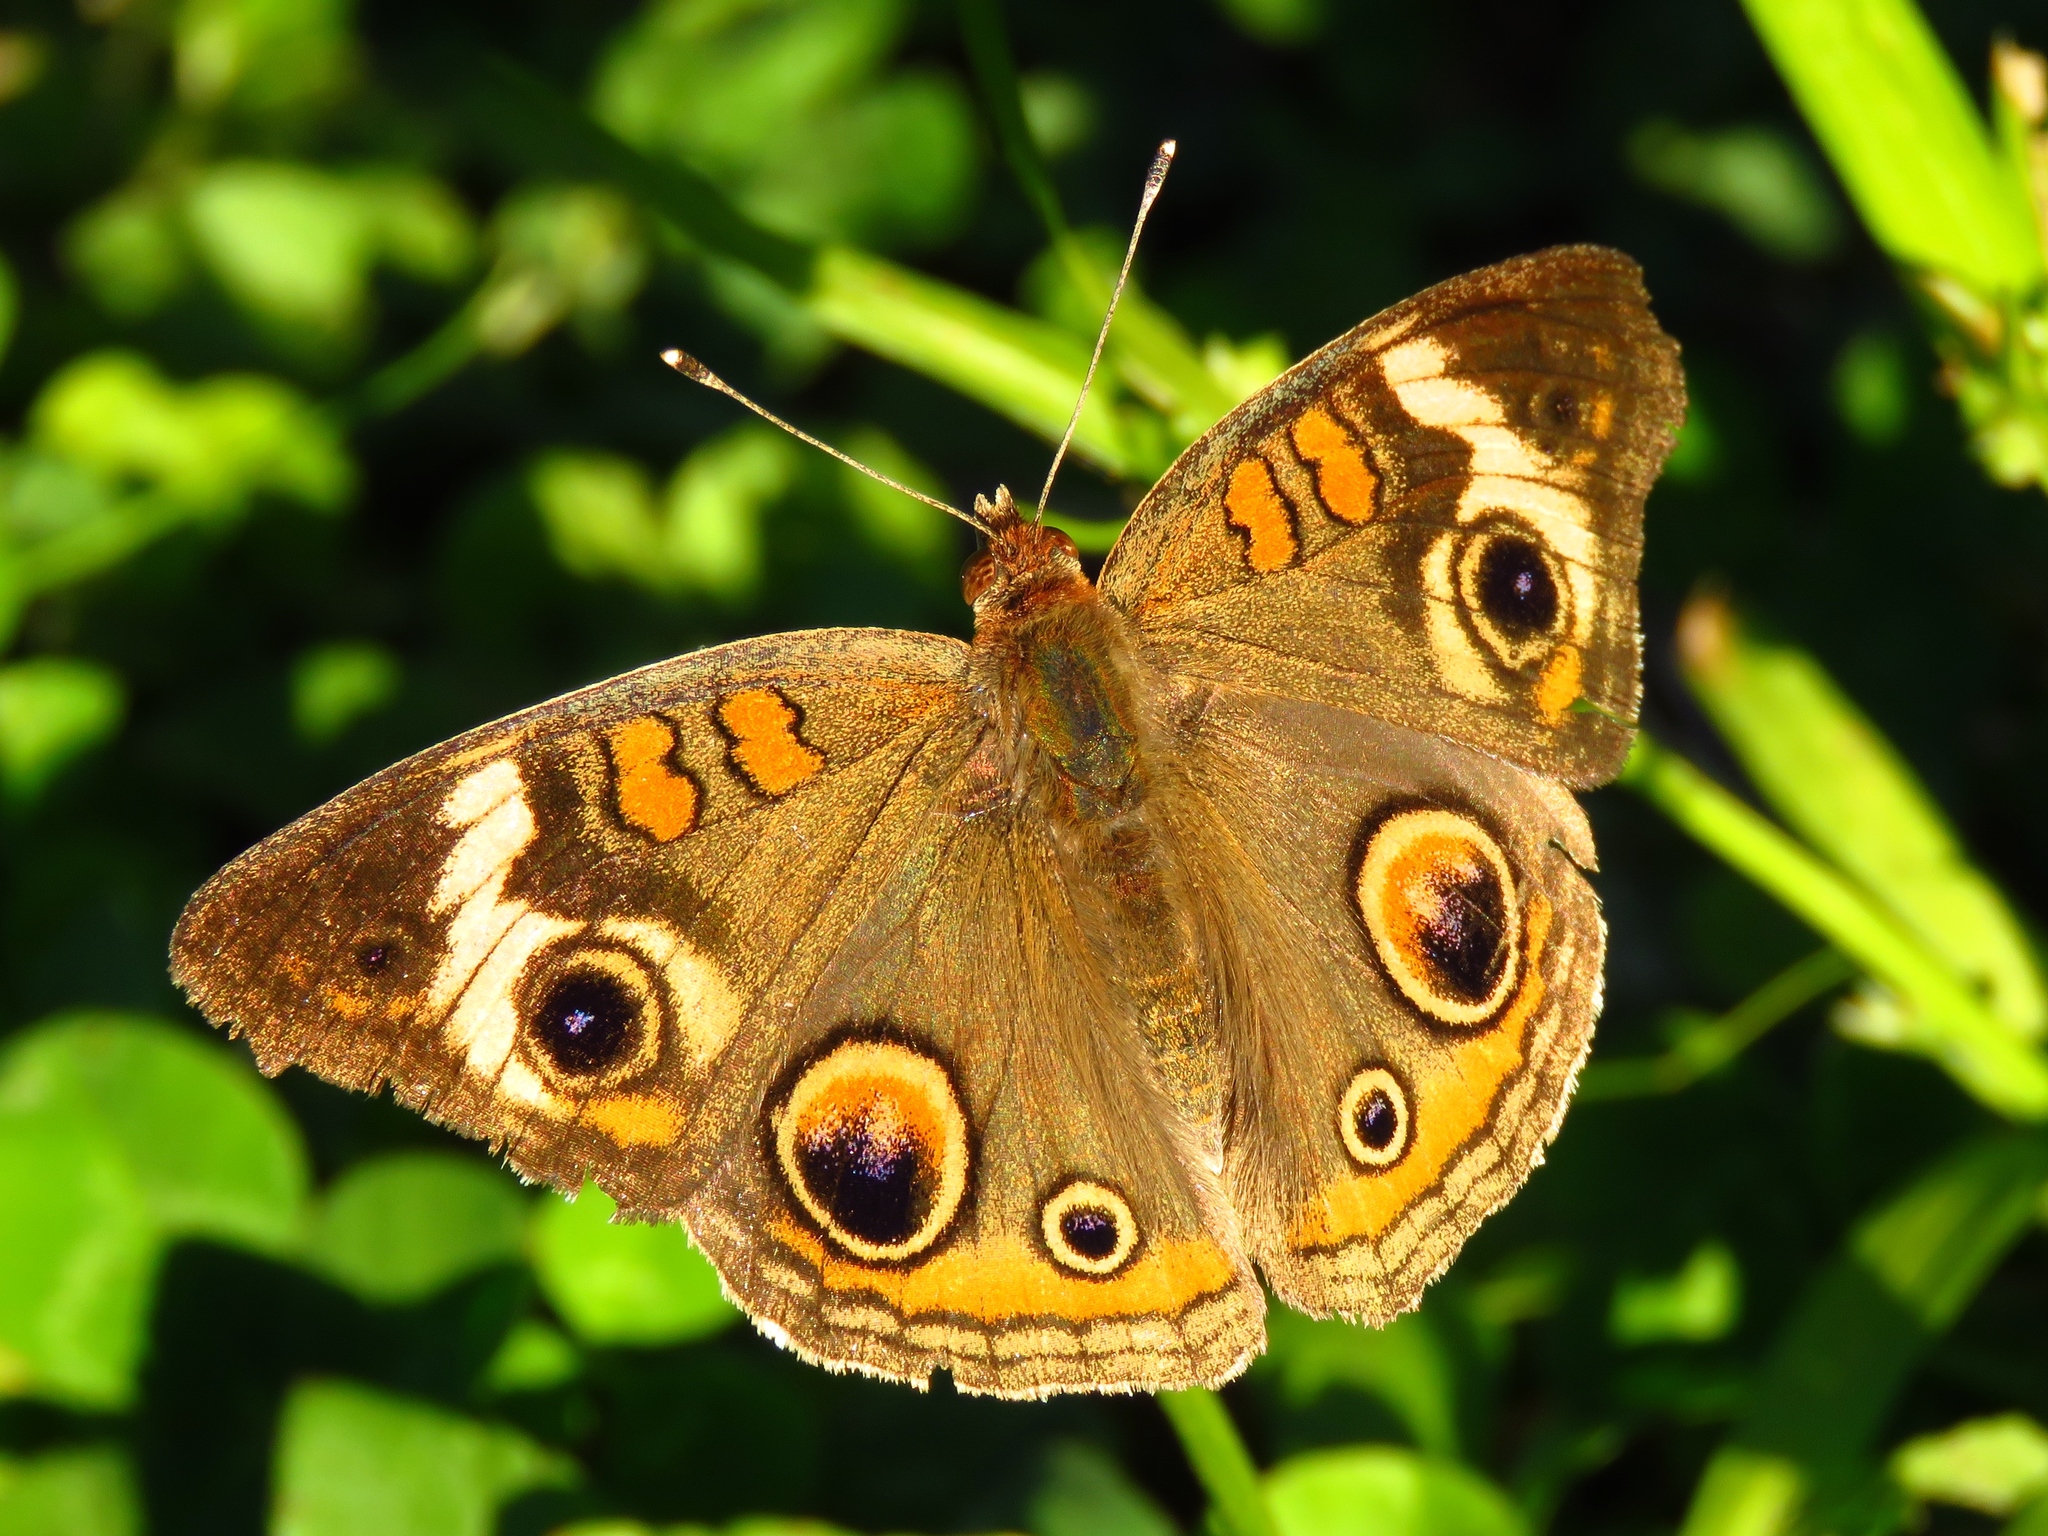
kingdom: Animalia
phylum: Arthropoda
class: Insecta
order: Lepidoptera
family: Nymphalidae
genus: Junonia
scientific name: Junonia coenia
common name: Common buckeye
